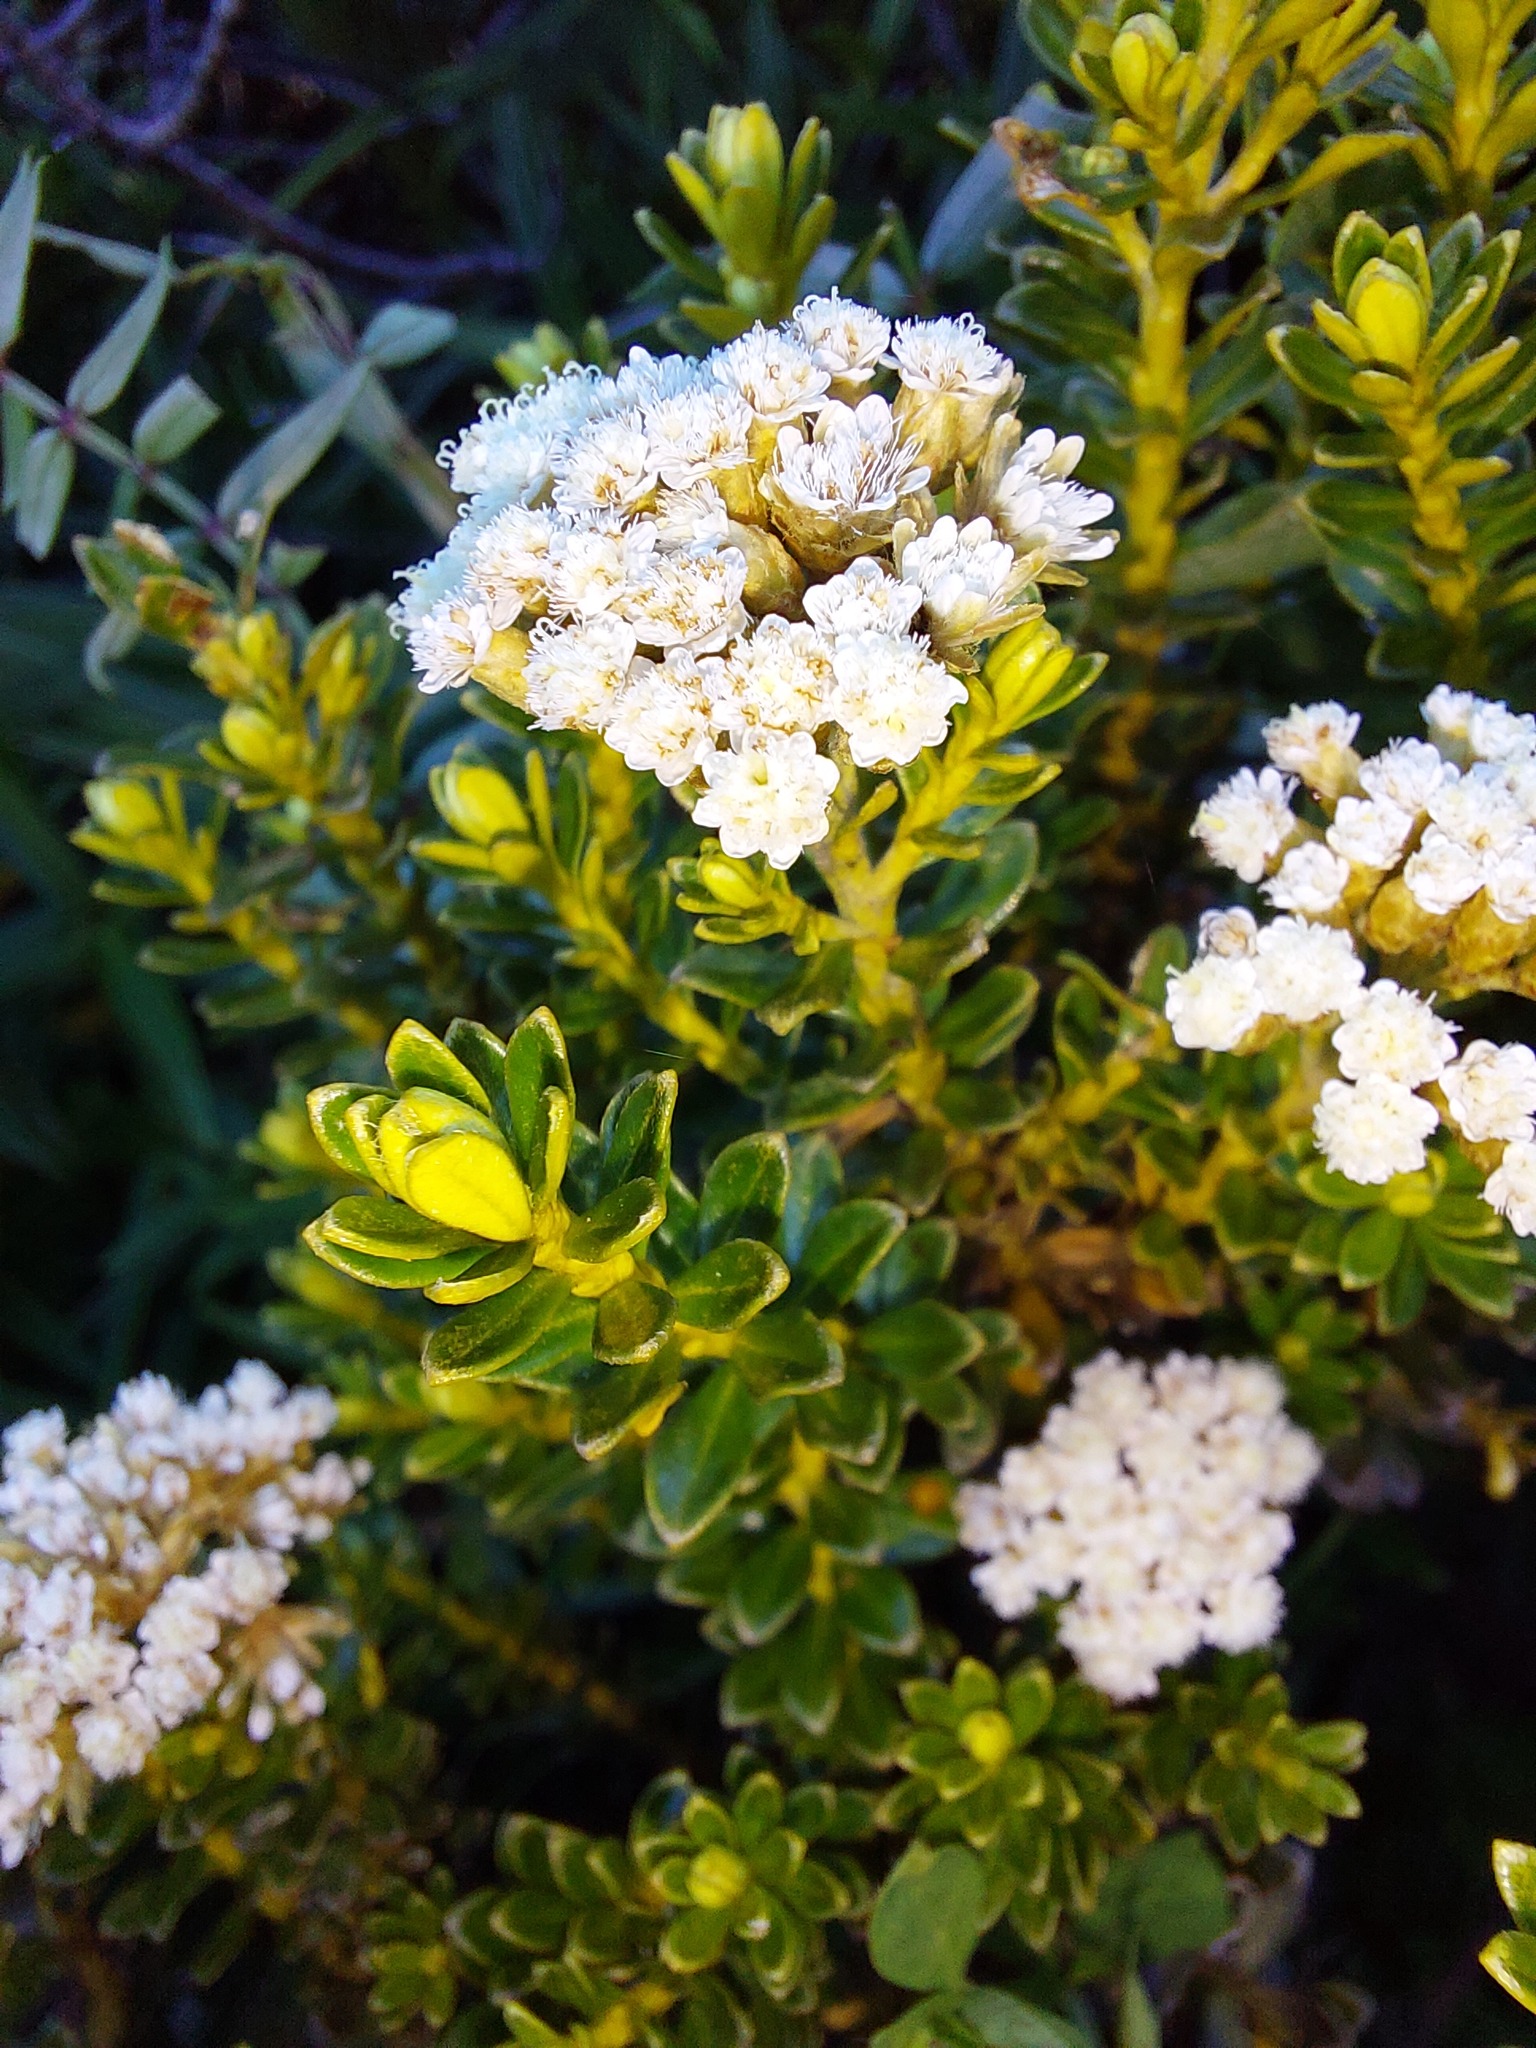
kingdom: Plantae
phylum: Tracheophyta
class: Magnoliopsida
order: Asterales
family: Asteraceae
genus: Ozothamnus
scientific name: Ozothamnus leptophyllus
